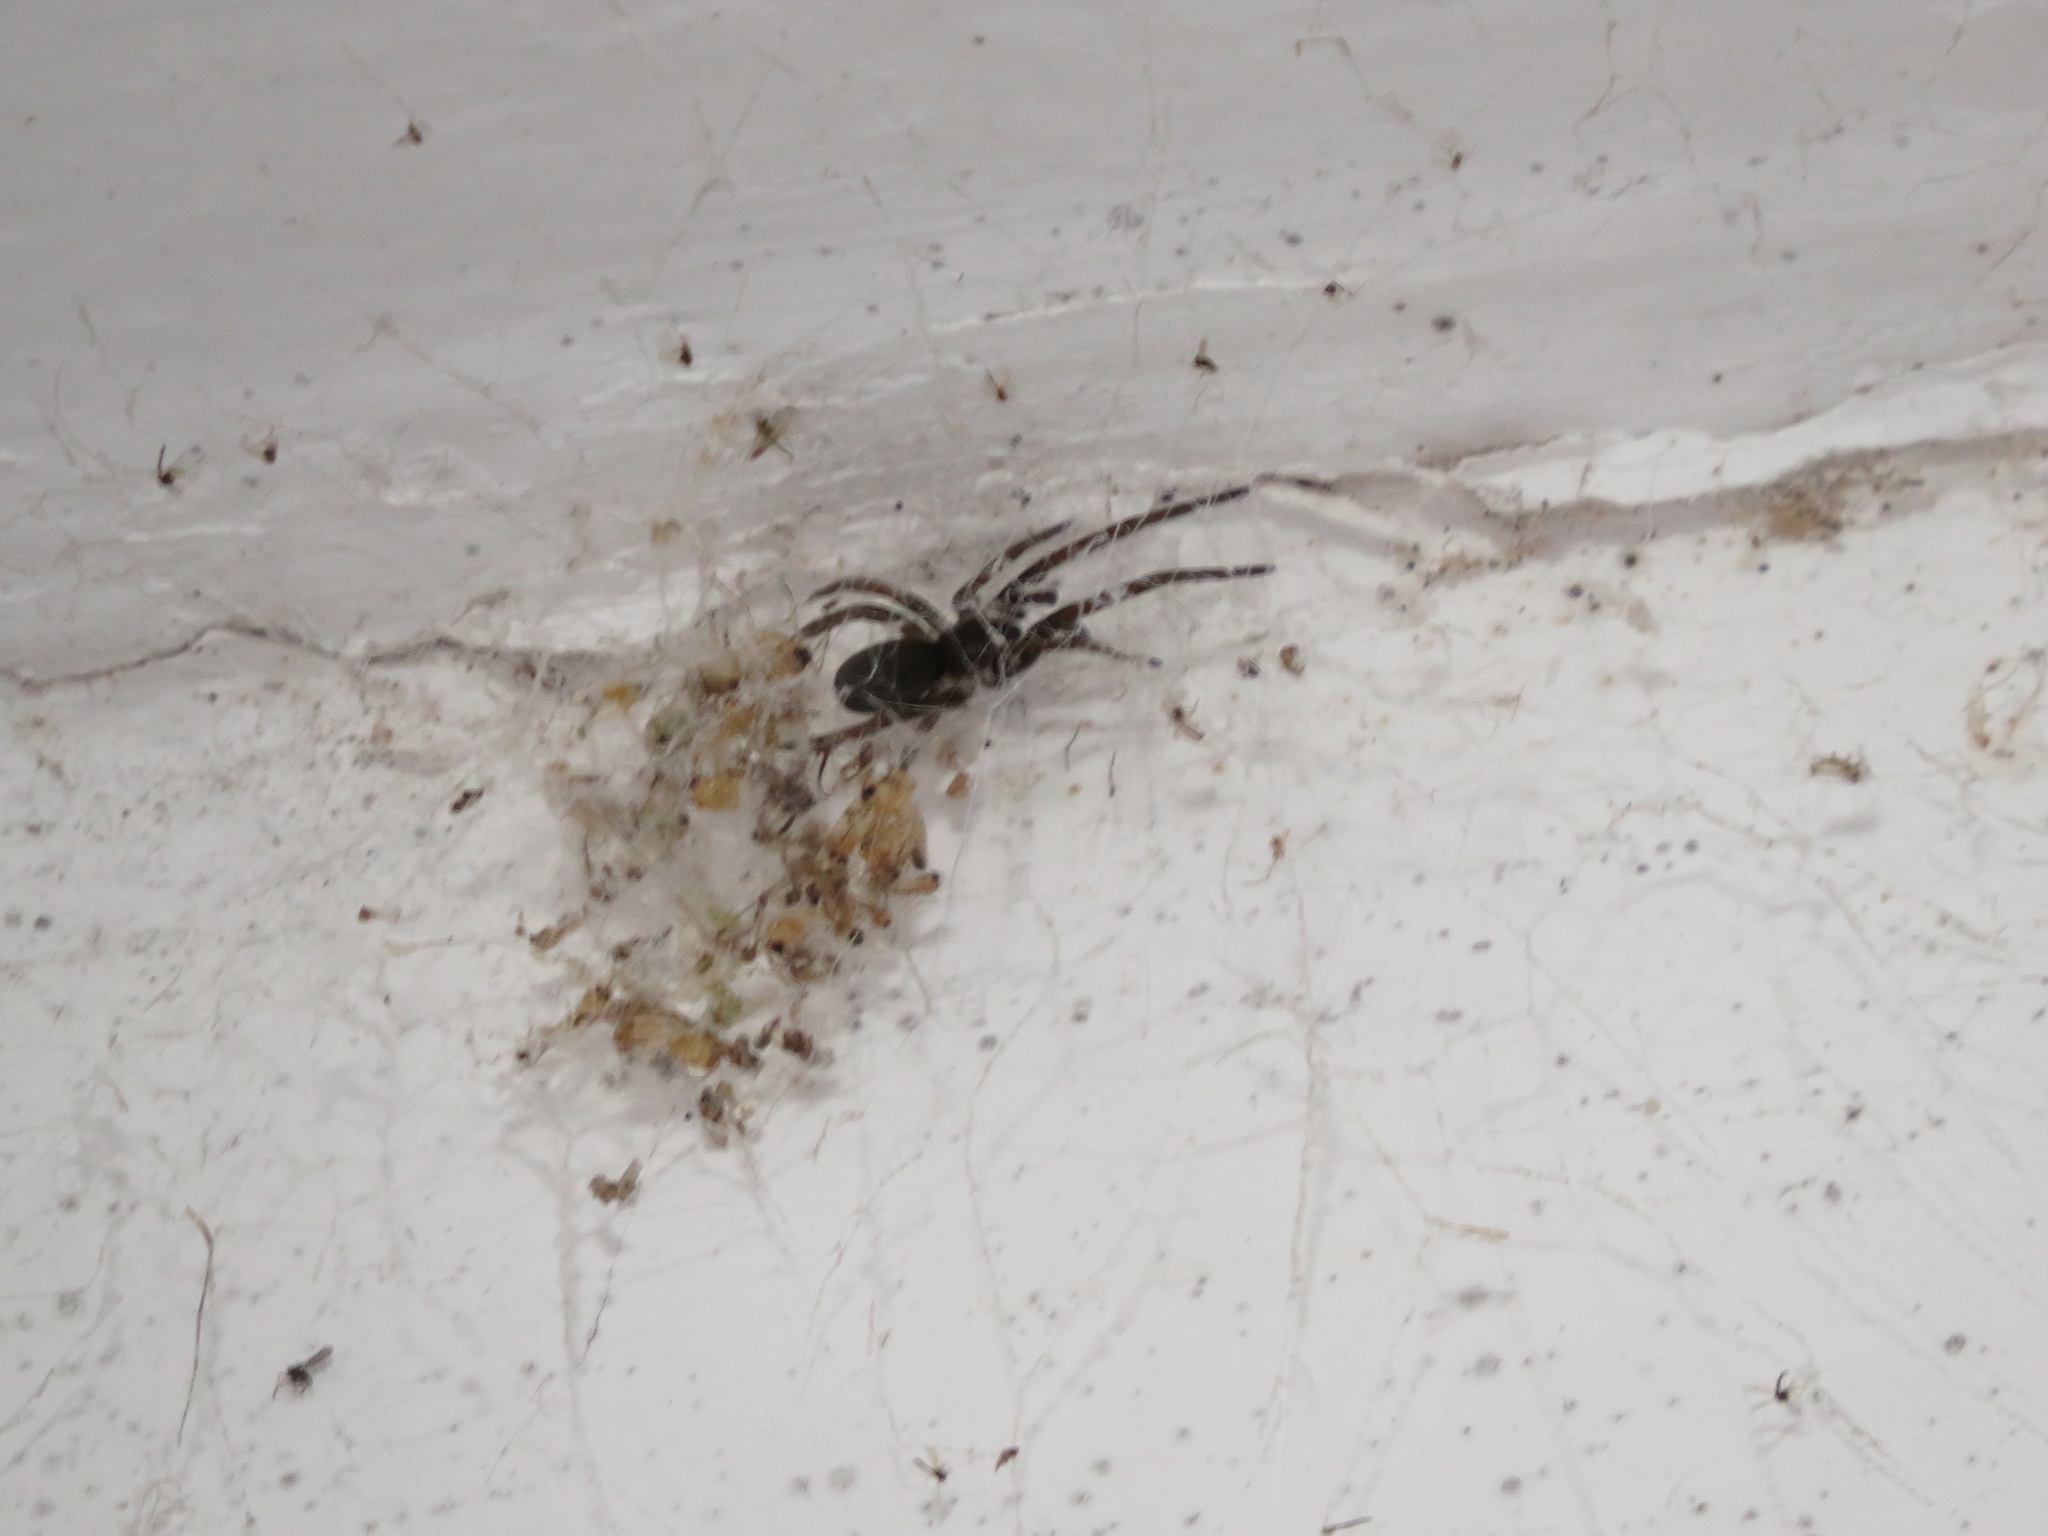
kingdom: Animalia
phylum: Arthropoda
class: Arachnida
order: Araneae
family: Filistatidae
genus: Kukulcania
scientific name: Kukulcania hibernalis
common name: Crevice weaver
